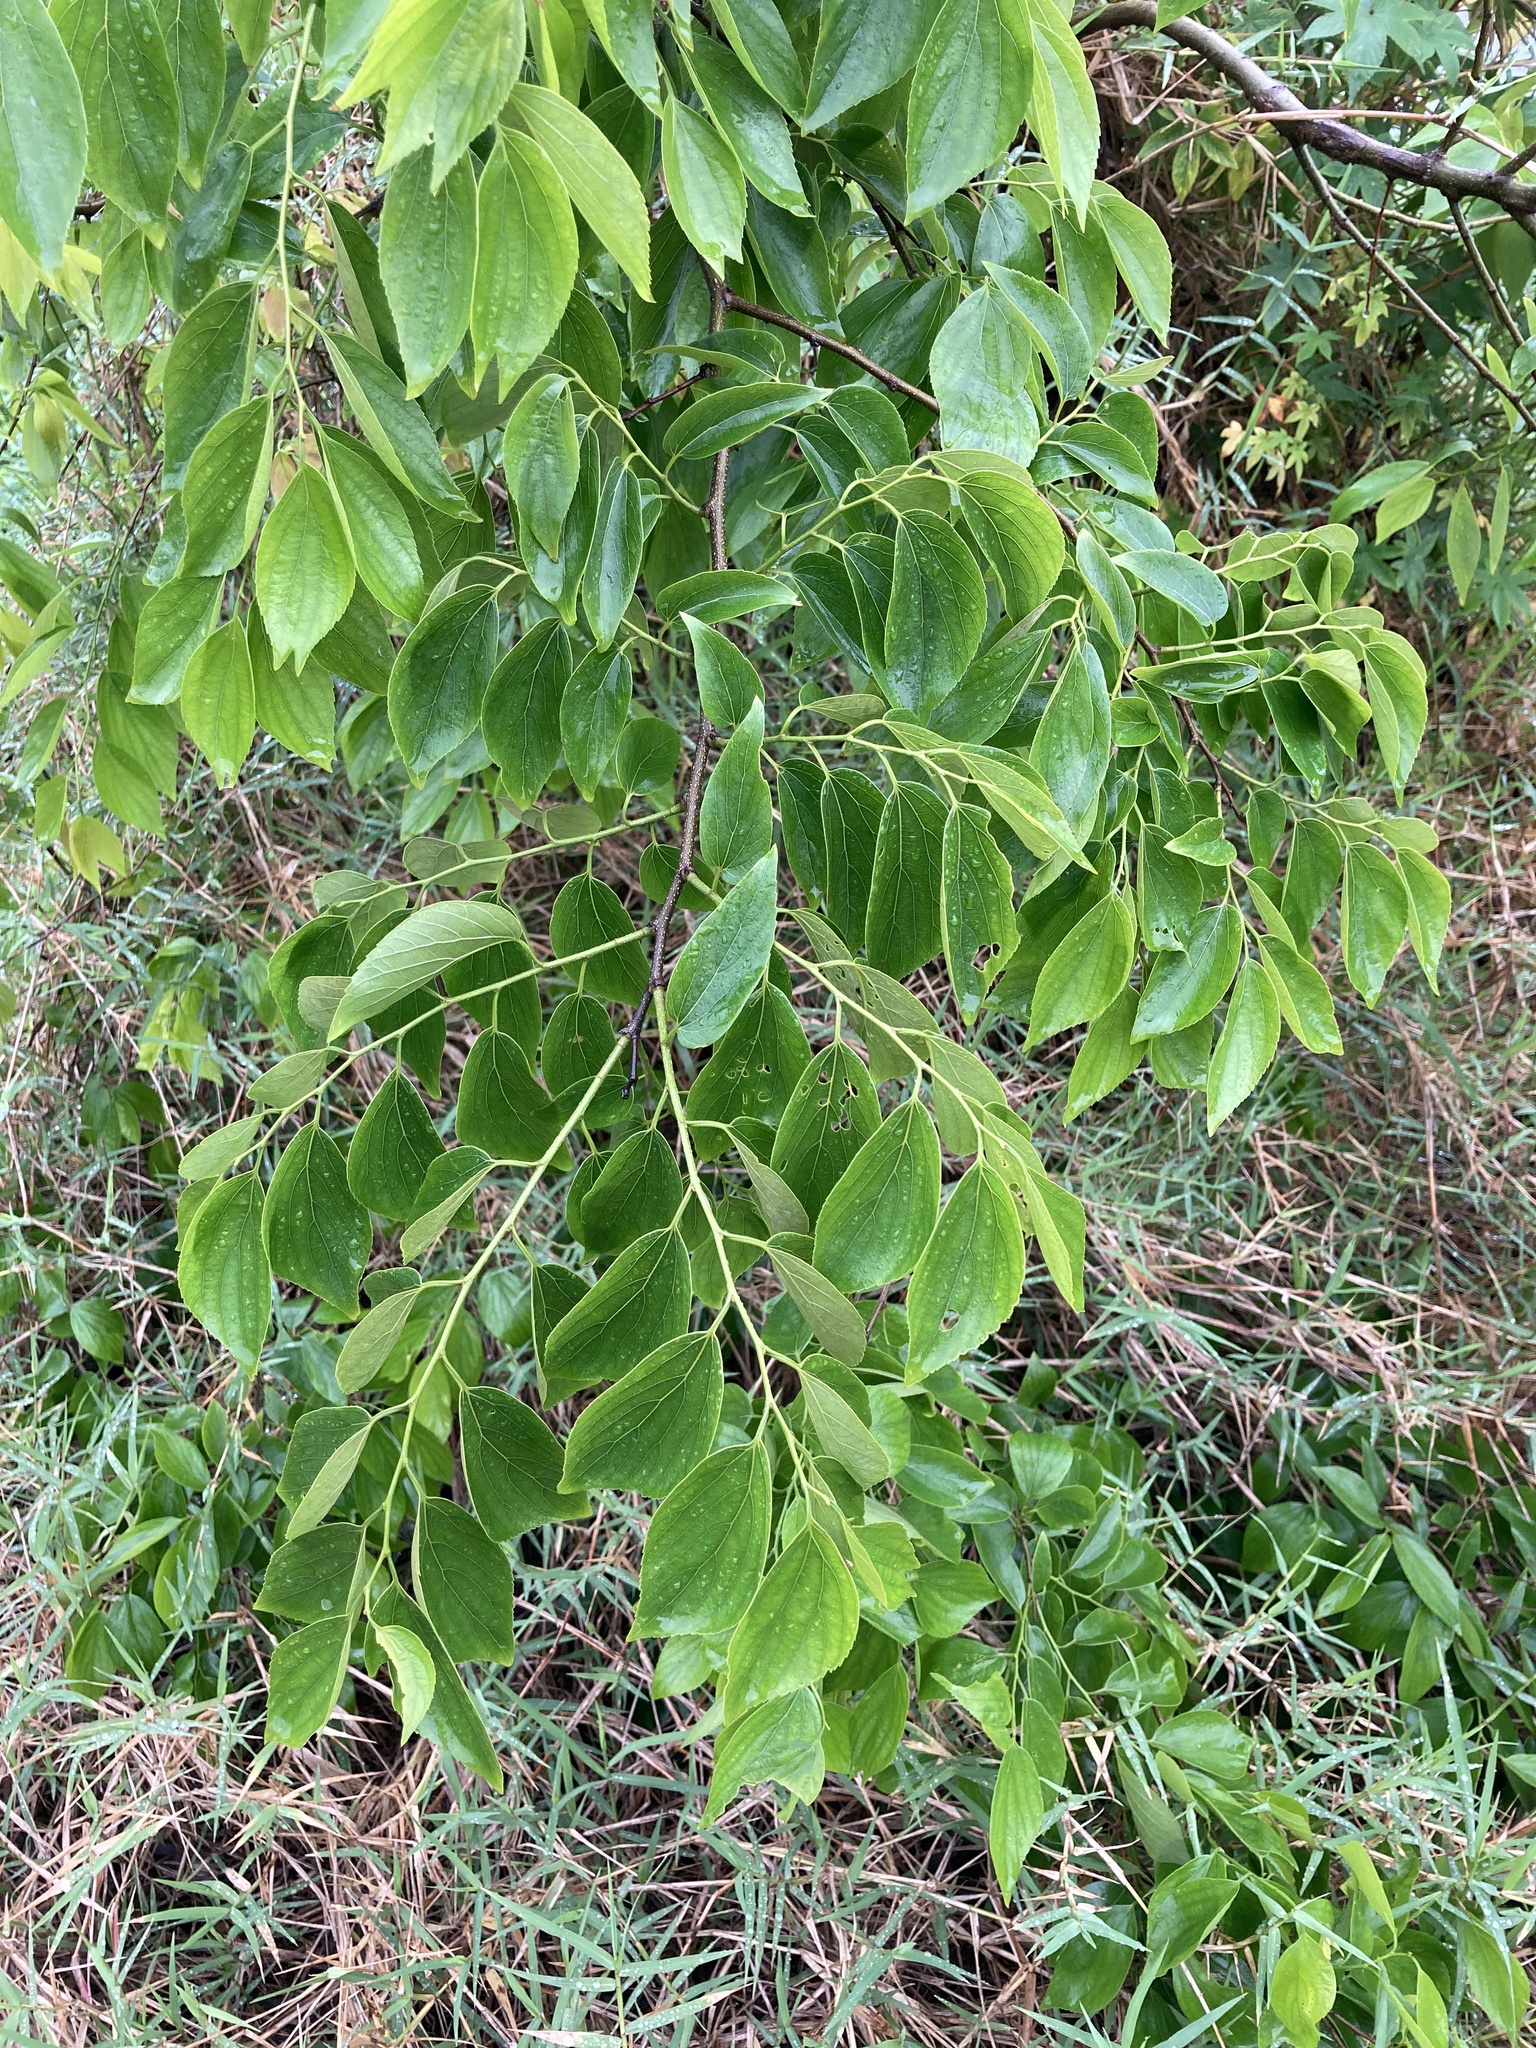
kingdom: Plantae
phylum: Tracheophyta
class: Magnoliopsida
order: Rosales
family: Cannabaceae
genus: Celtis
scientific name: Celtis sinensis
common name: Chinese hackberry
